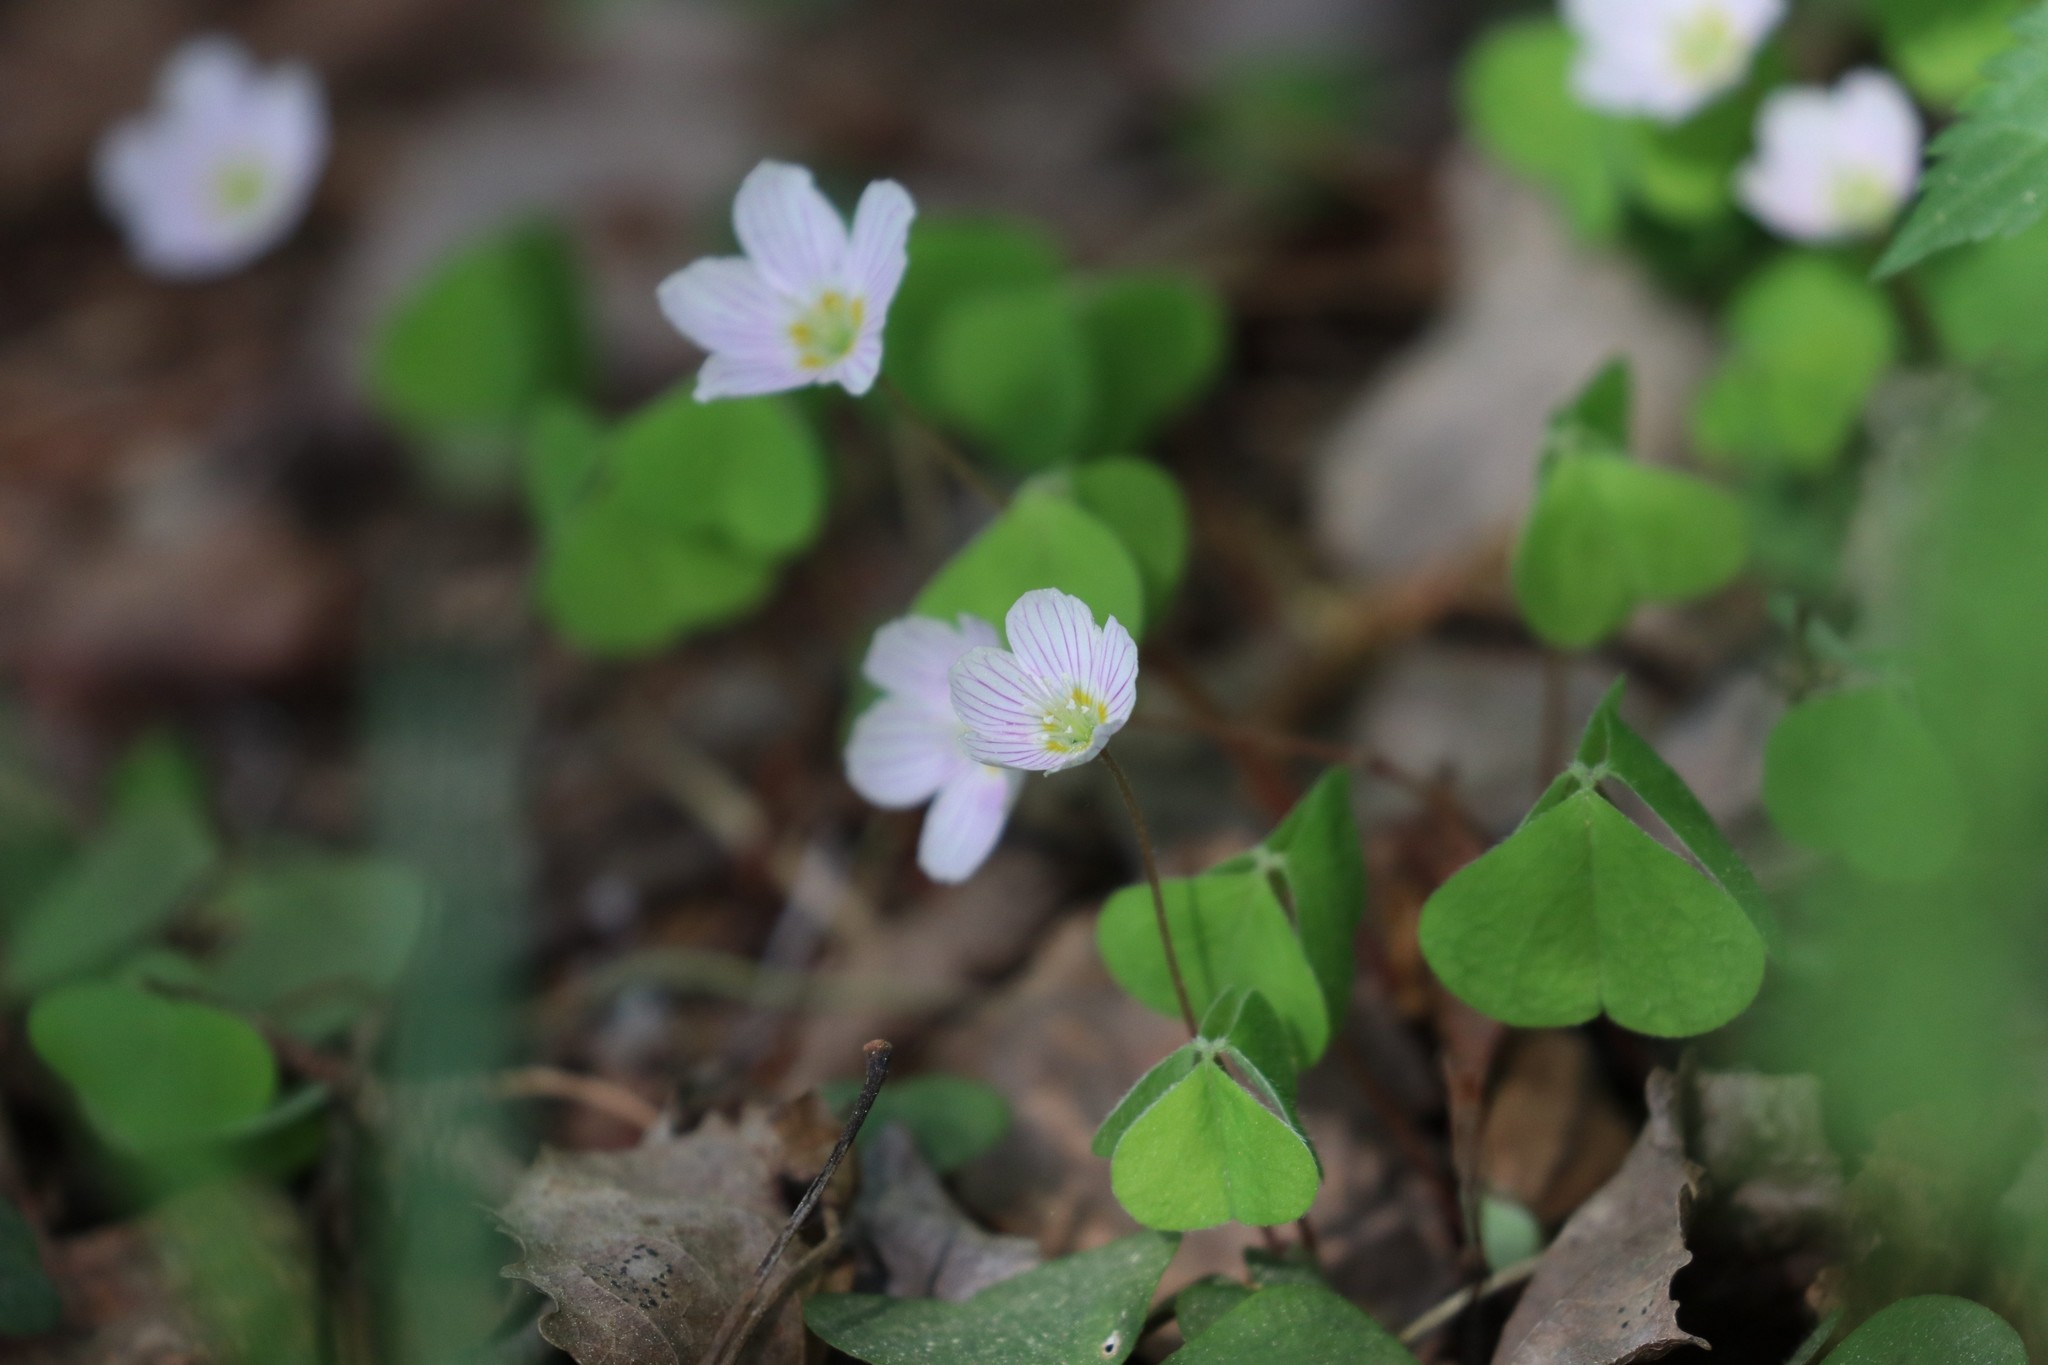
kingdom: Plantae
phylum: Tracheophyta
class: Magnoliopsida
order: Oxalidales
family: Oxalidaceae
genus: Oxalis
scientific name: Oxalis acetosella
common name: Wood-sorrel
